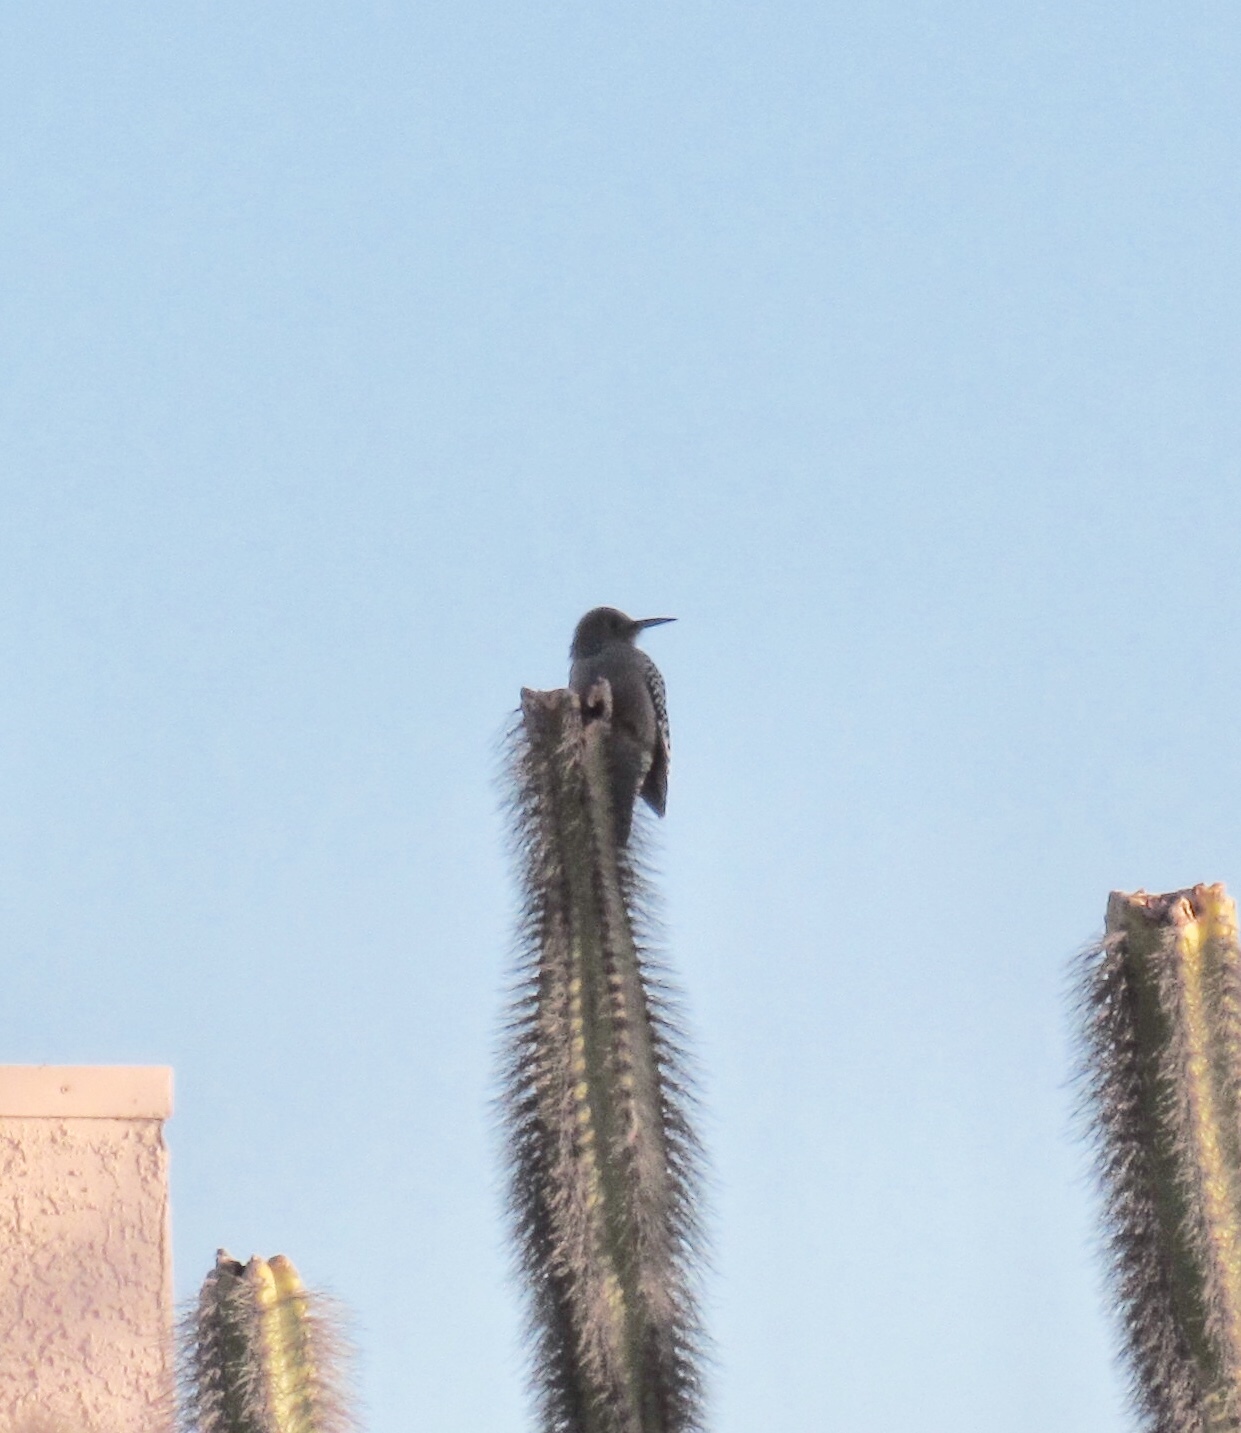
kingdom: Animalia
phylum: Chordata
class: Aves
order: Piciformes
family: Picidae
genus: Melanerpes
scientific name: Melanerpes uropygialis
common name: Gila woodpecker
